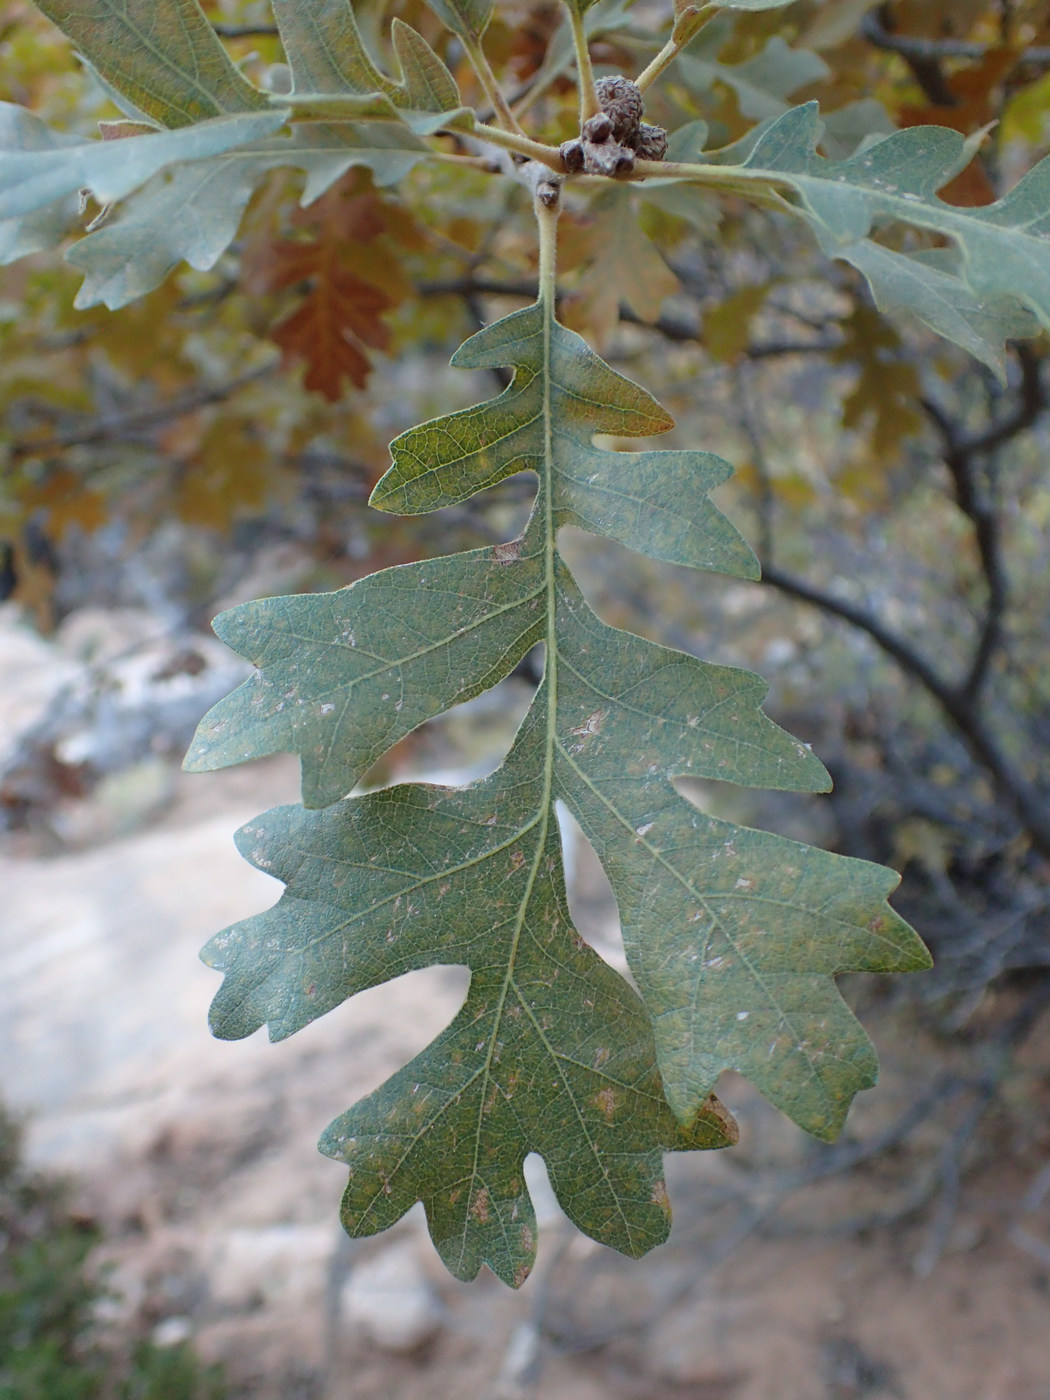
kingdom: Plantae
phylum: Tracheophyta
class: Magnoliopsida
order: Fagales
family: Fagaceae
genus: Quercus
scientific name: Quercus gambelii
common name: Gambel oak
